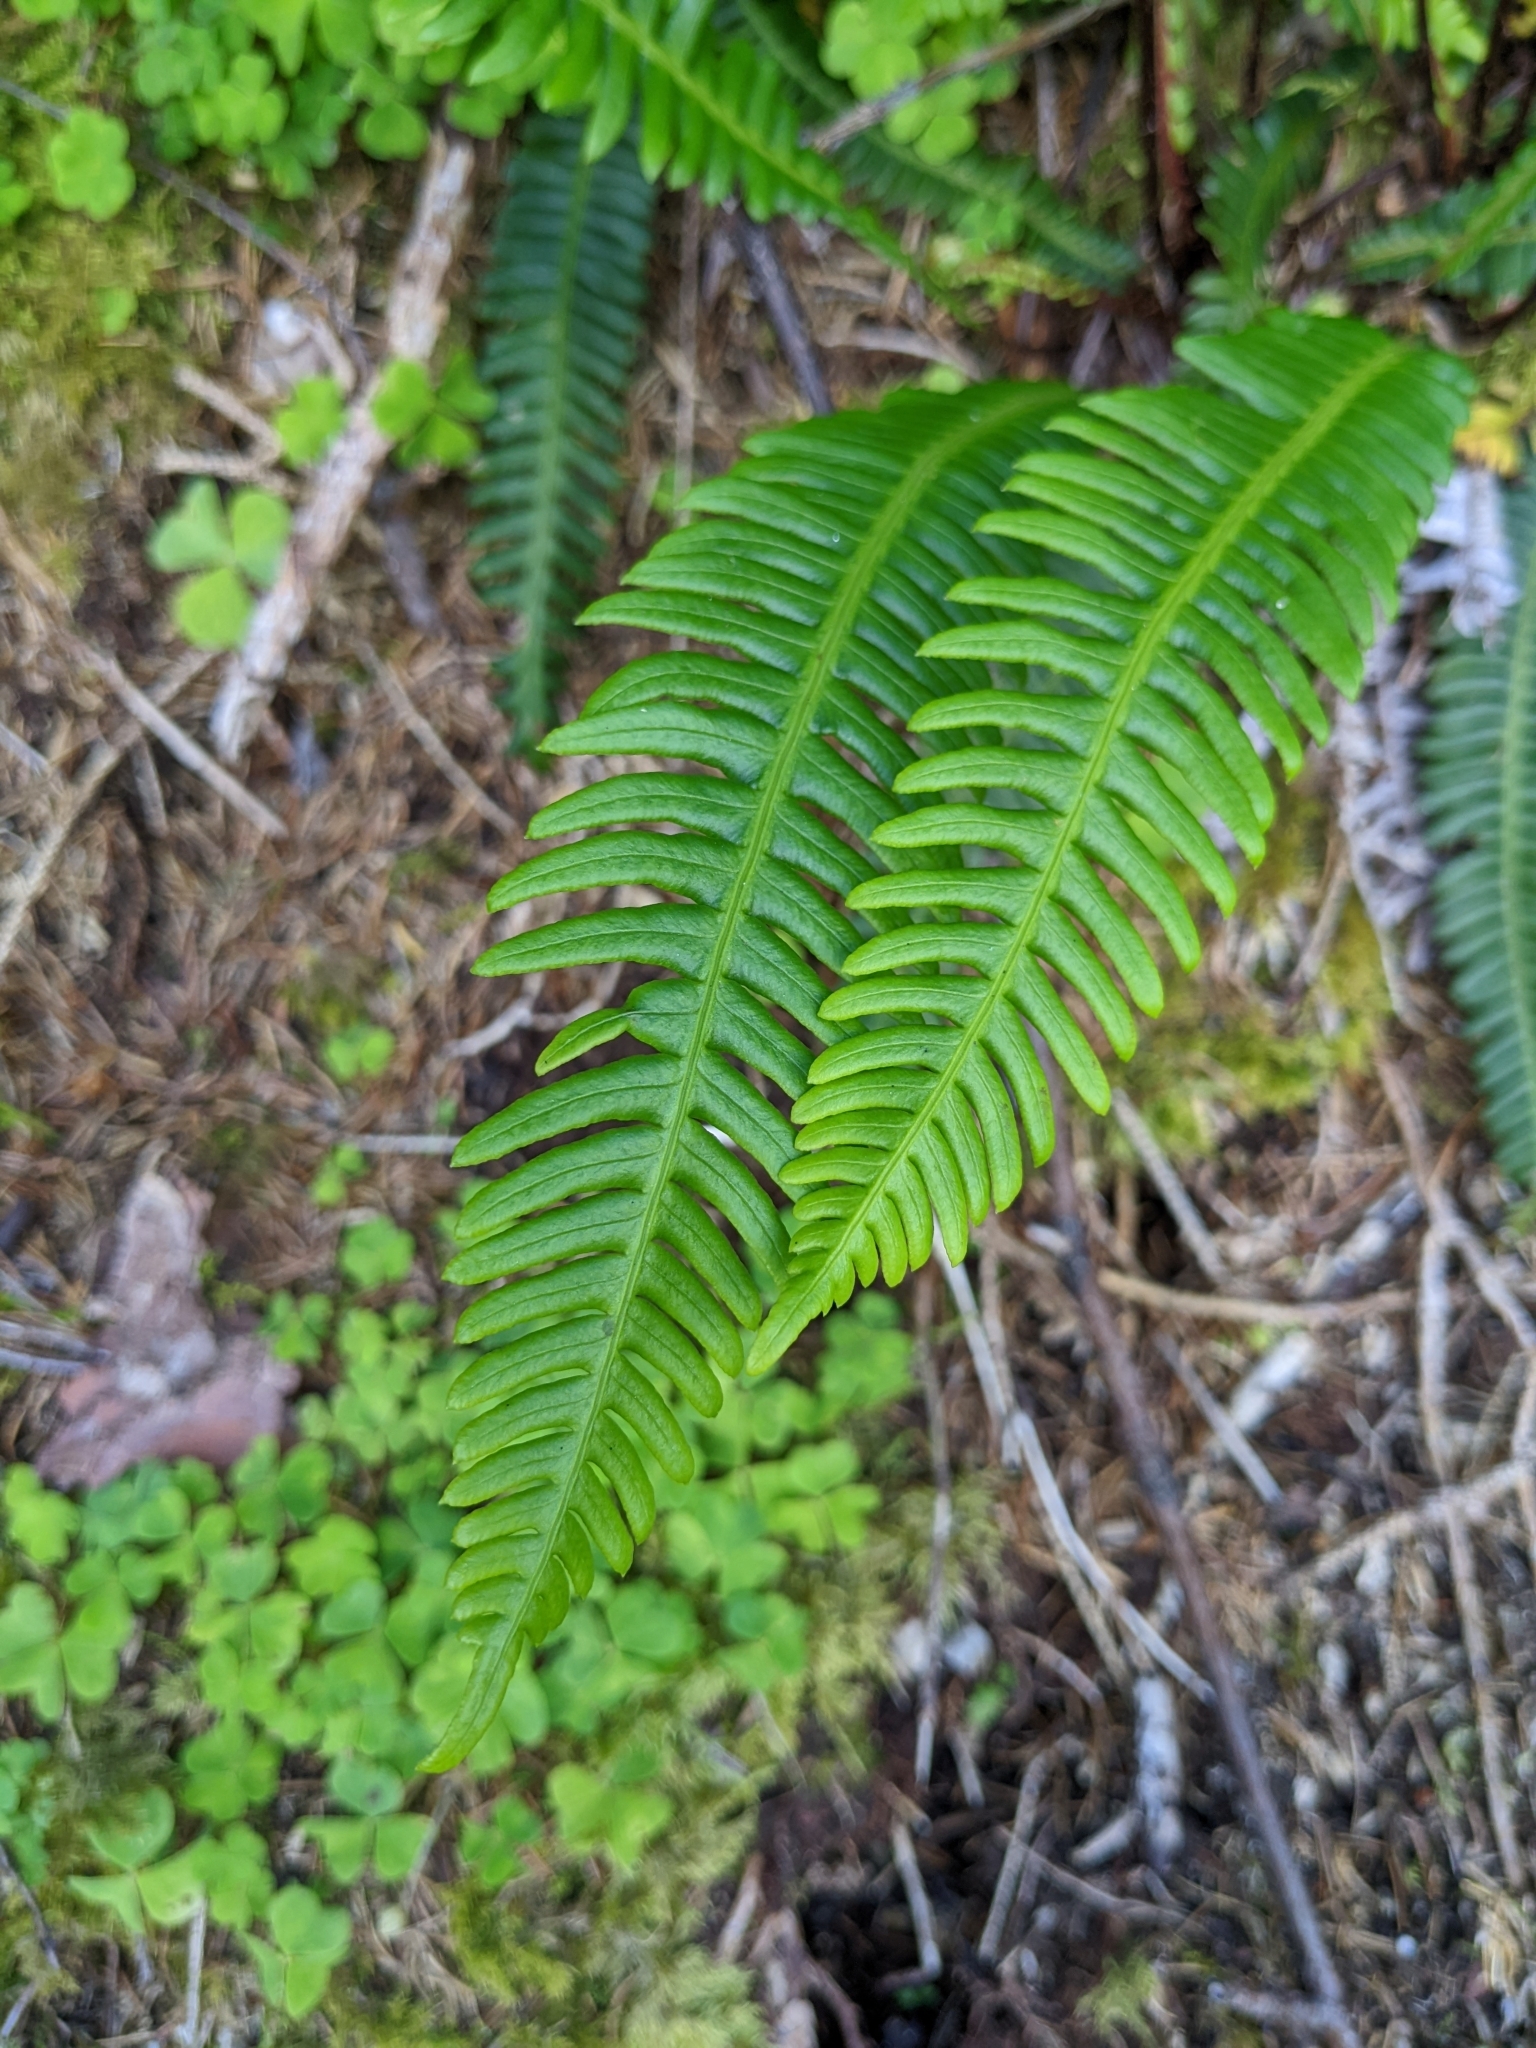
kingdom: Plantae
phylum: Tracheophyta
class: Polypodiopsida
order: Polypodiales
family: Blechnaceae
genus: Struthiopteris
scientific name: Struthiopteris spicant
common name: Deer fern
